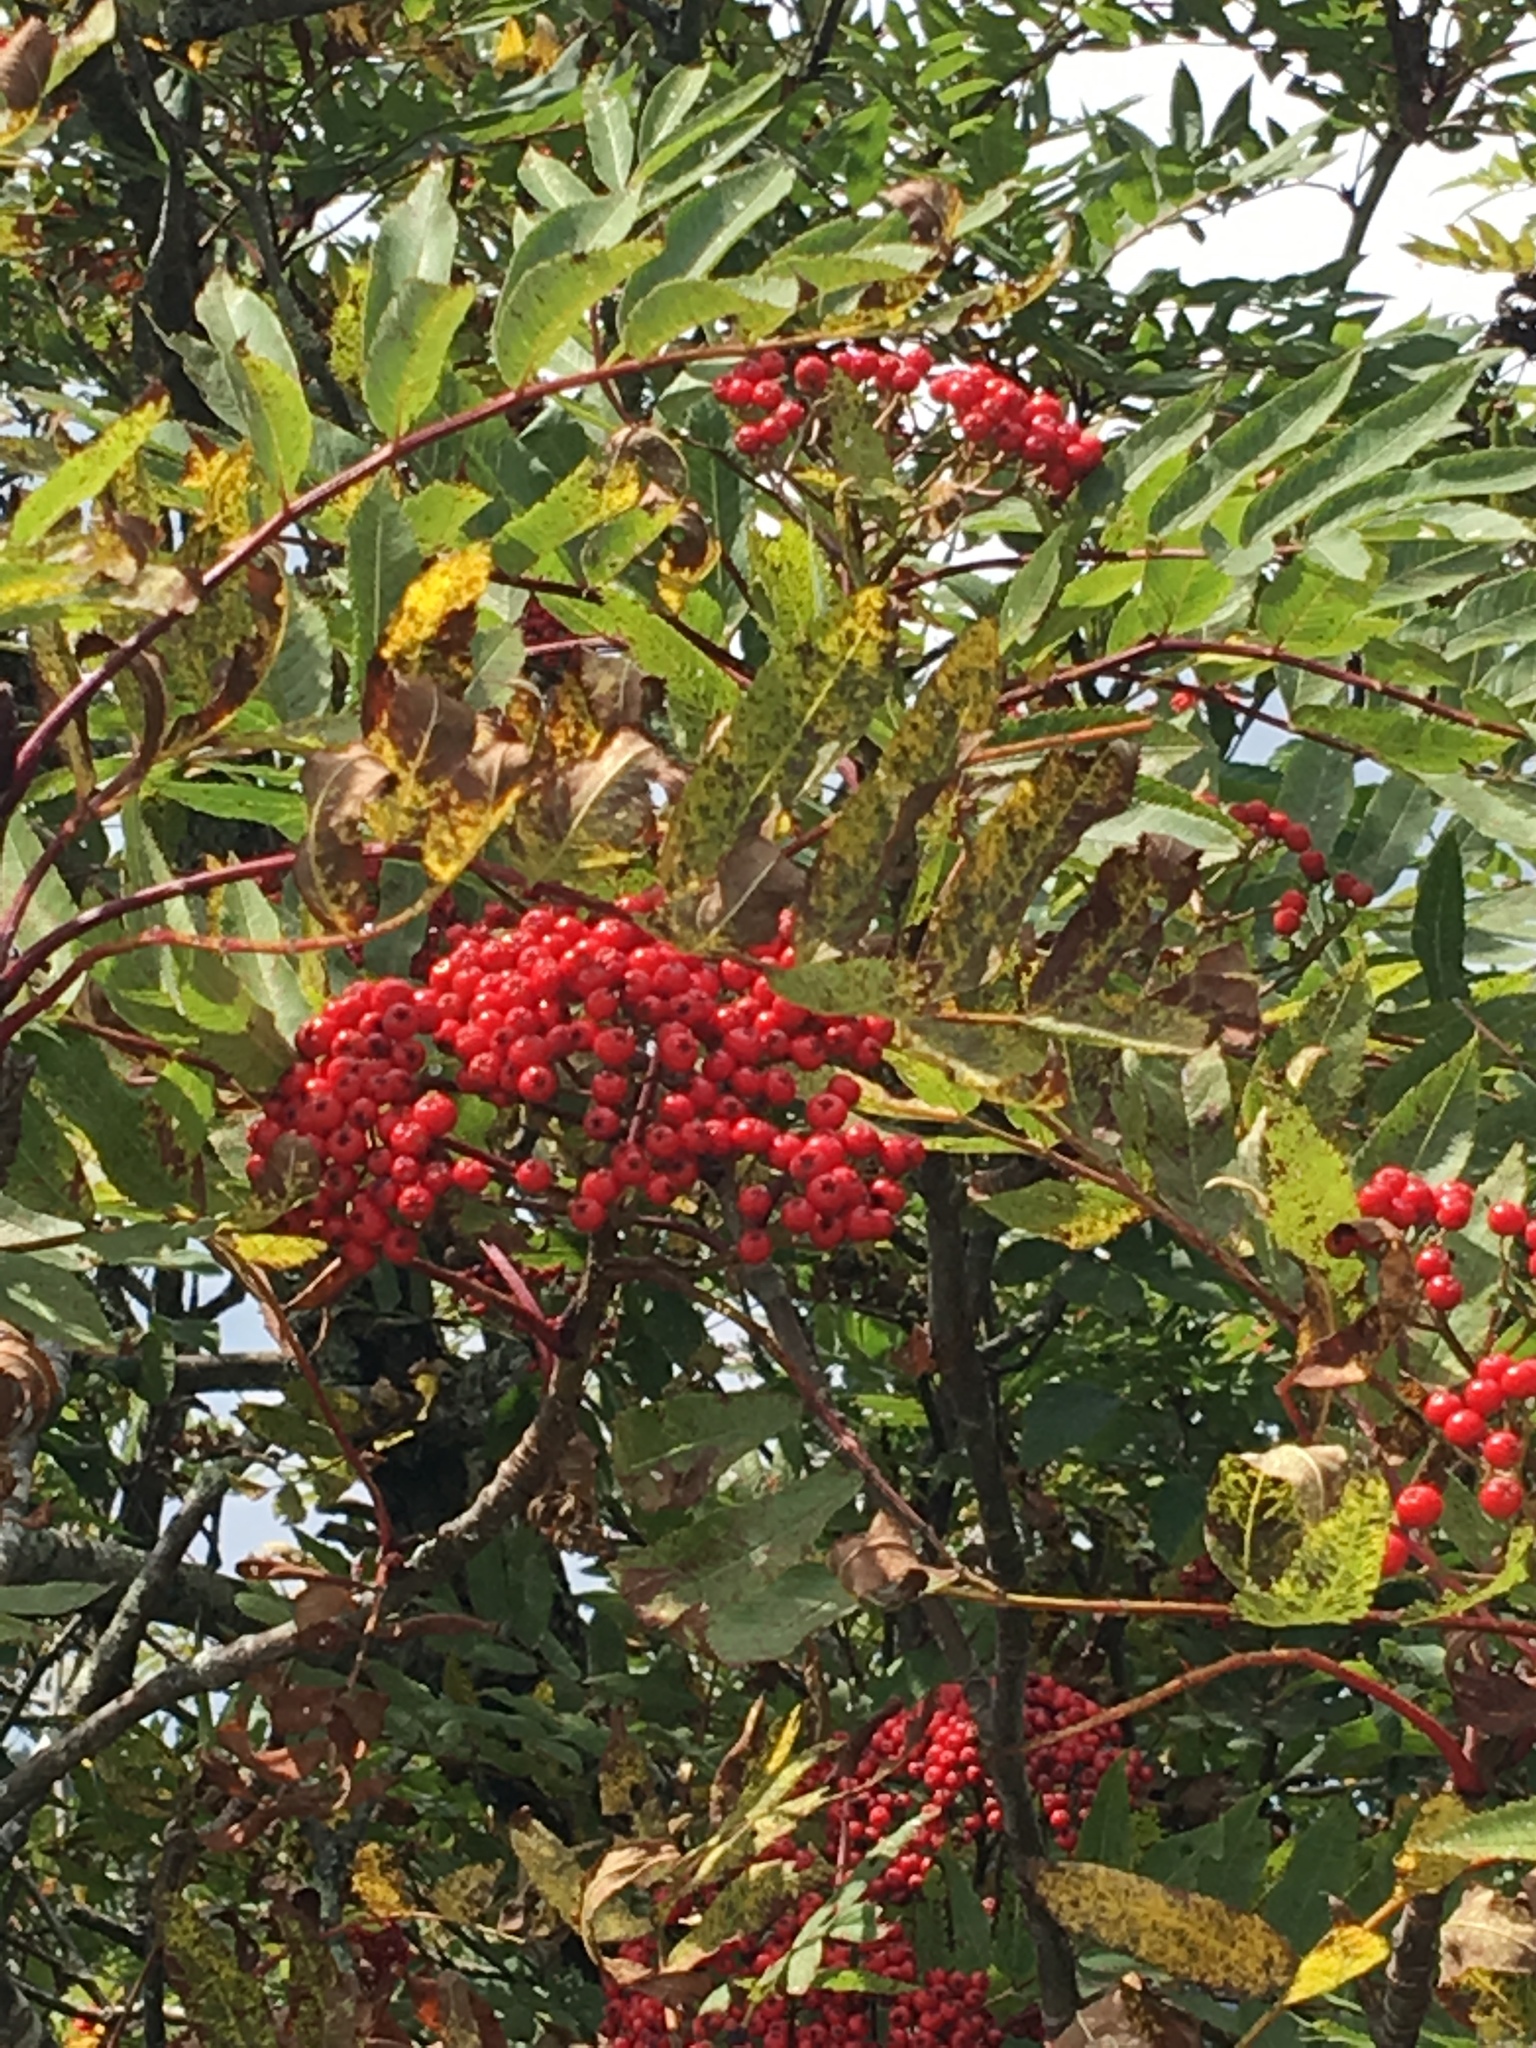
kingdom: Plantae
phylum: Tracheophyta
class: Magnoliopsida
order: Rosales
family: Rosaceae
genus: Sorbus
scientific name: Sorbus americana
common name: American mountain-ash
